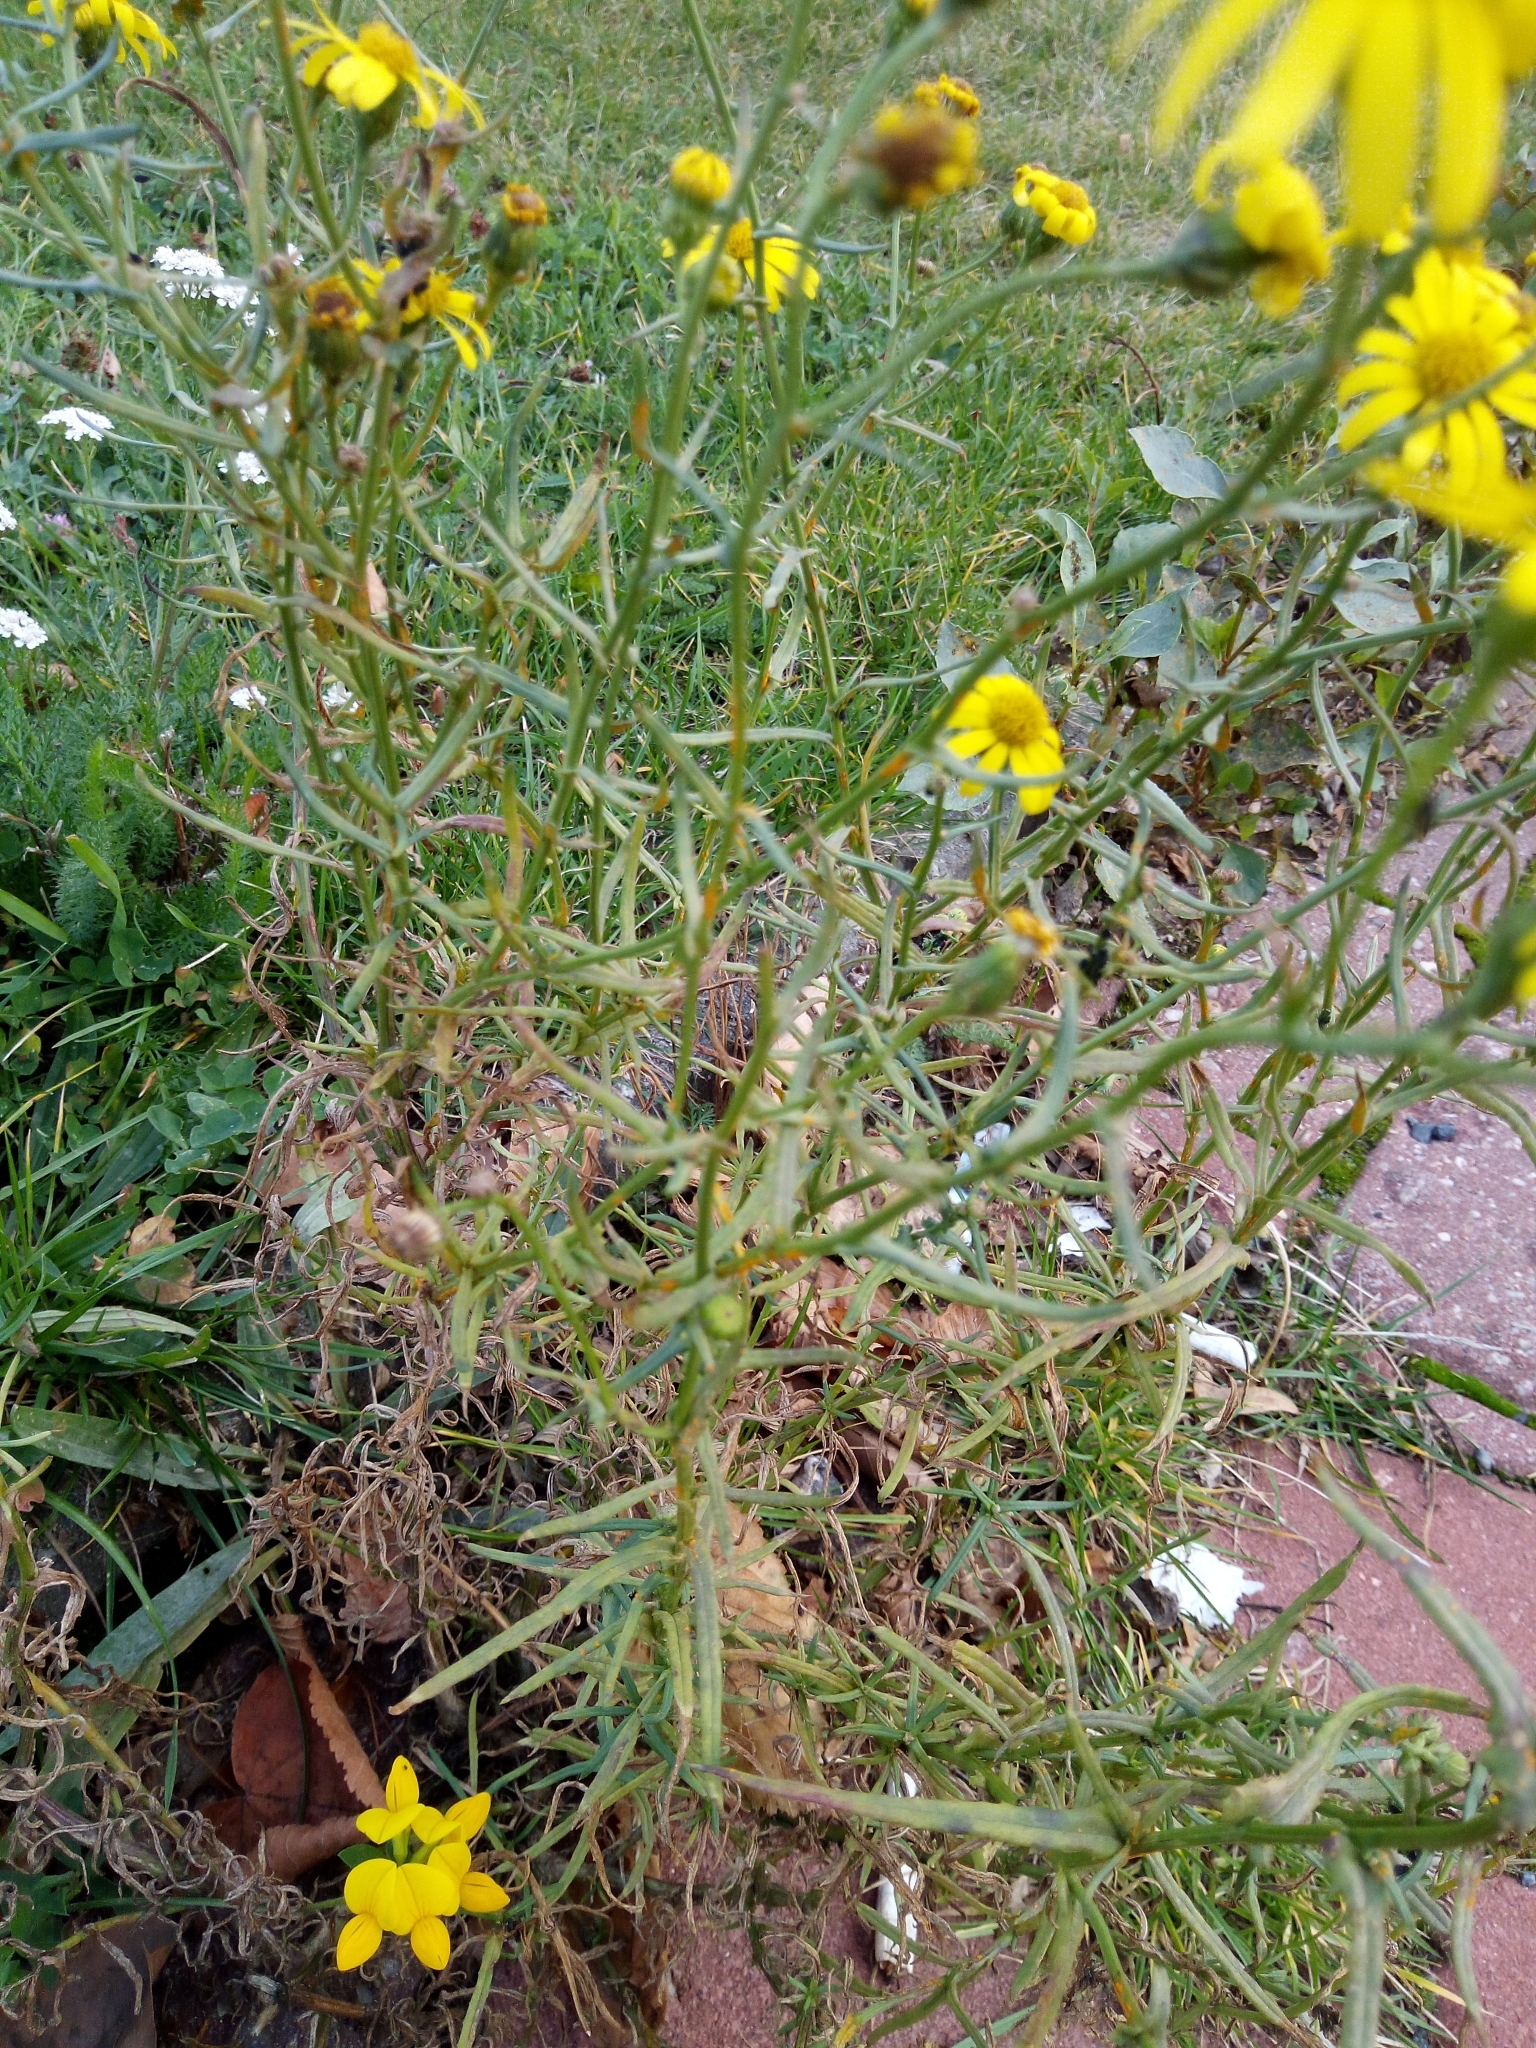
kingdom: Plantae
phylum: Tracheophyta
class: Magnoliopsida
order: Asterales
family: Asteraceae
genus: Senecio
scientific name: Senecio inaequidens
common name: Narrow-leaved ragwort
